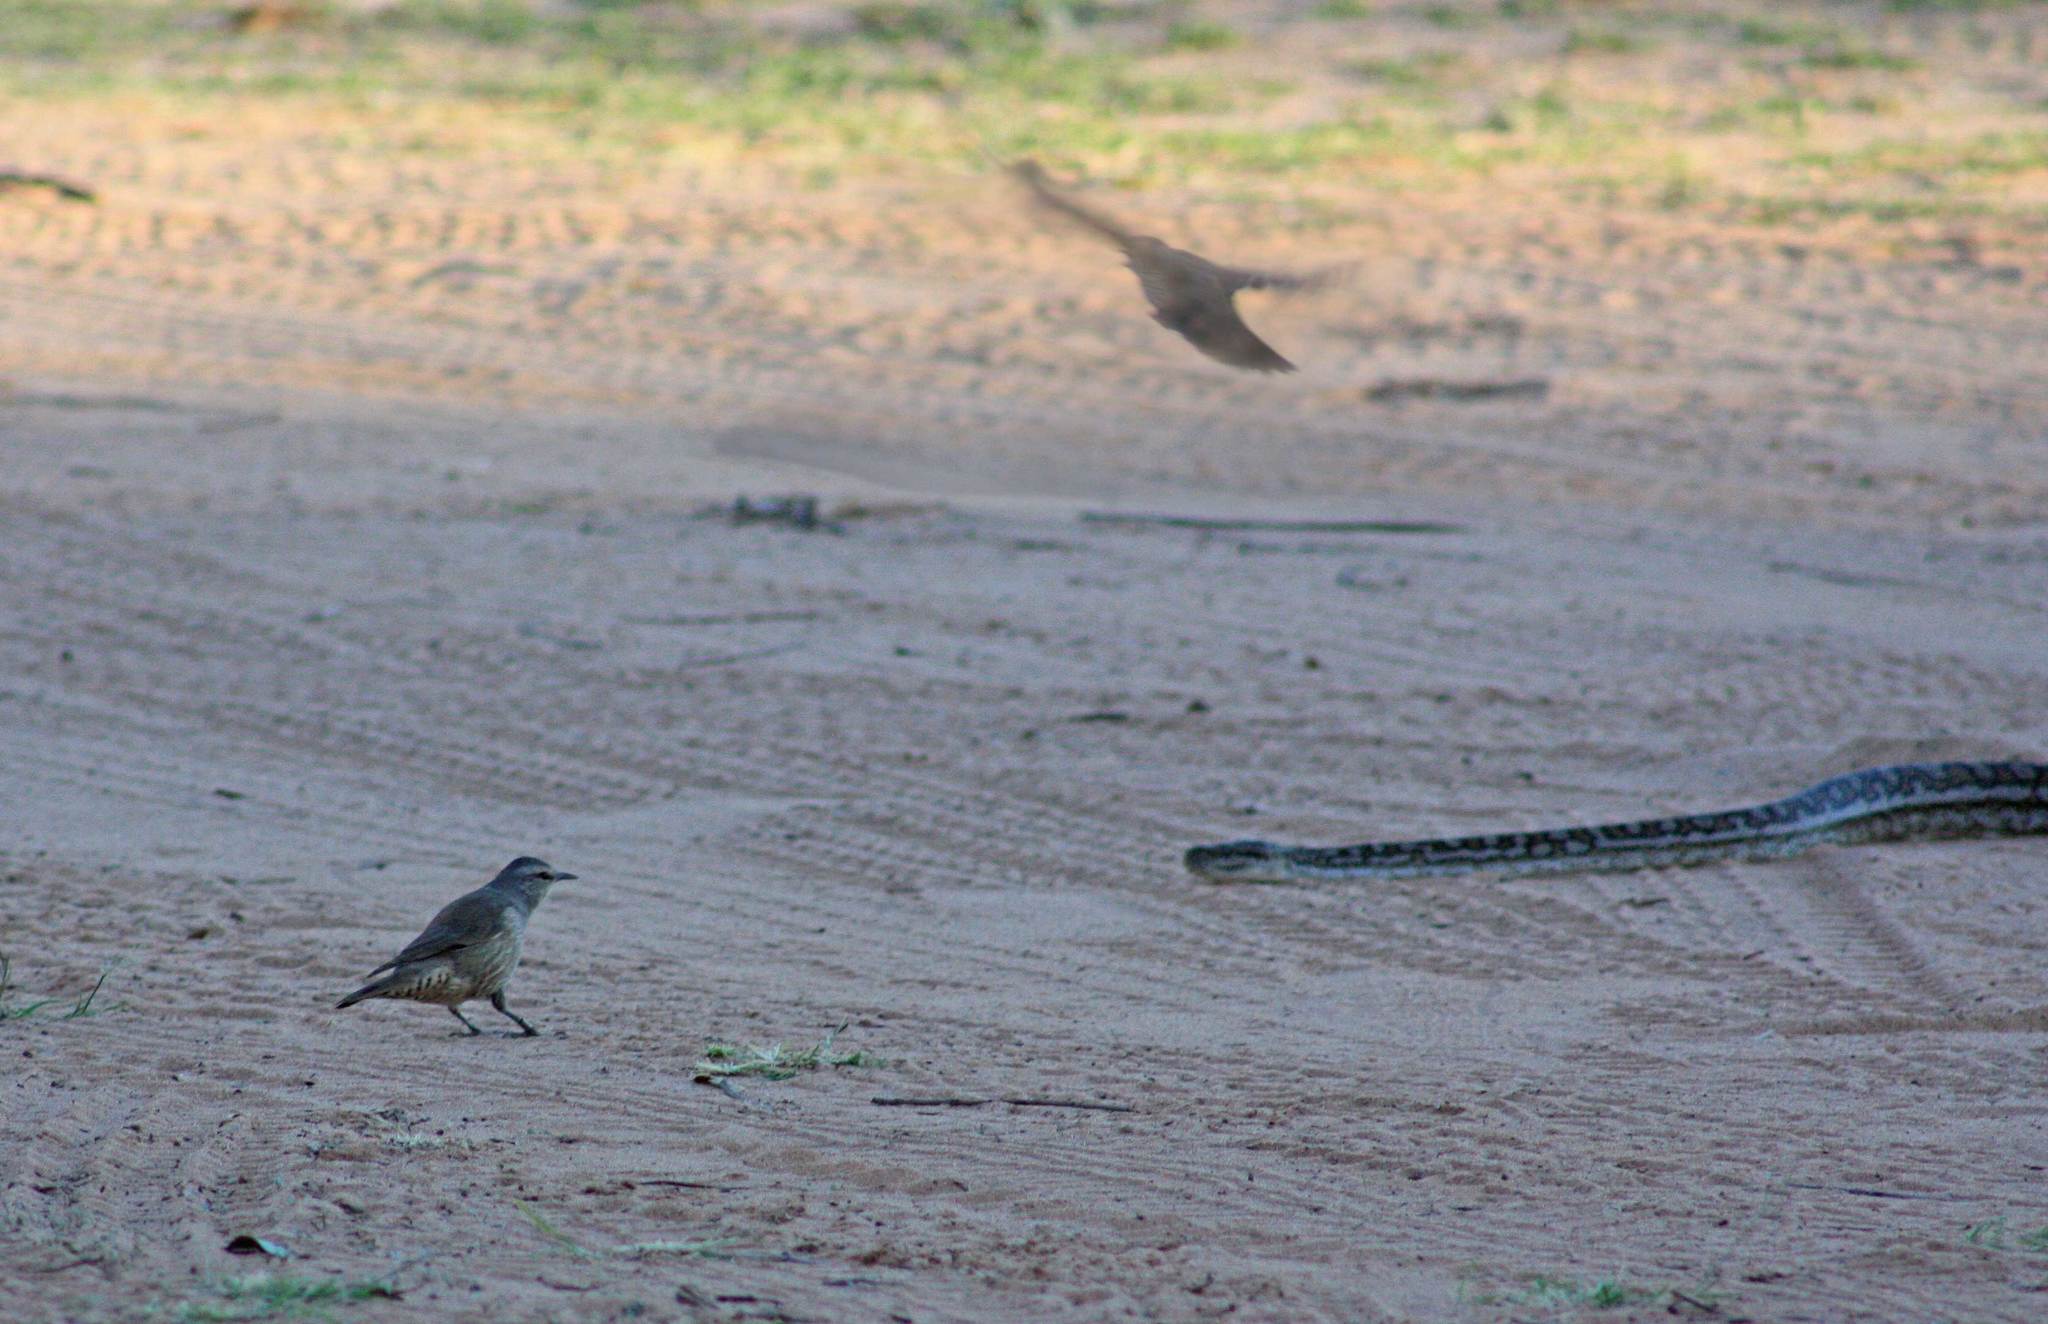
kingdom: Animalia
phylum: Chordata
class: Squamata
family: Pythonidae
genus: Morelia
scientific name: Morelia spilota
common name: Carpet python
